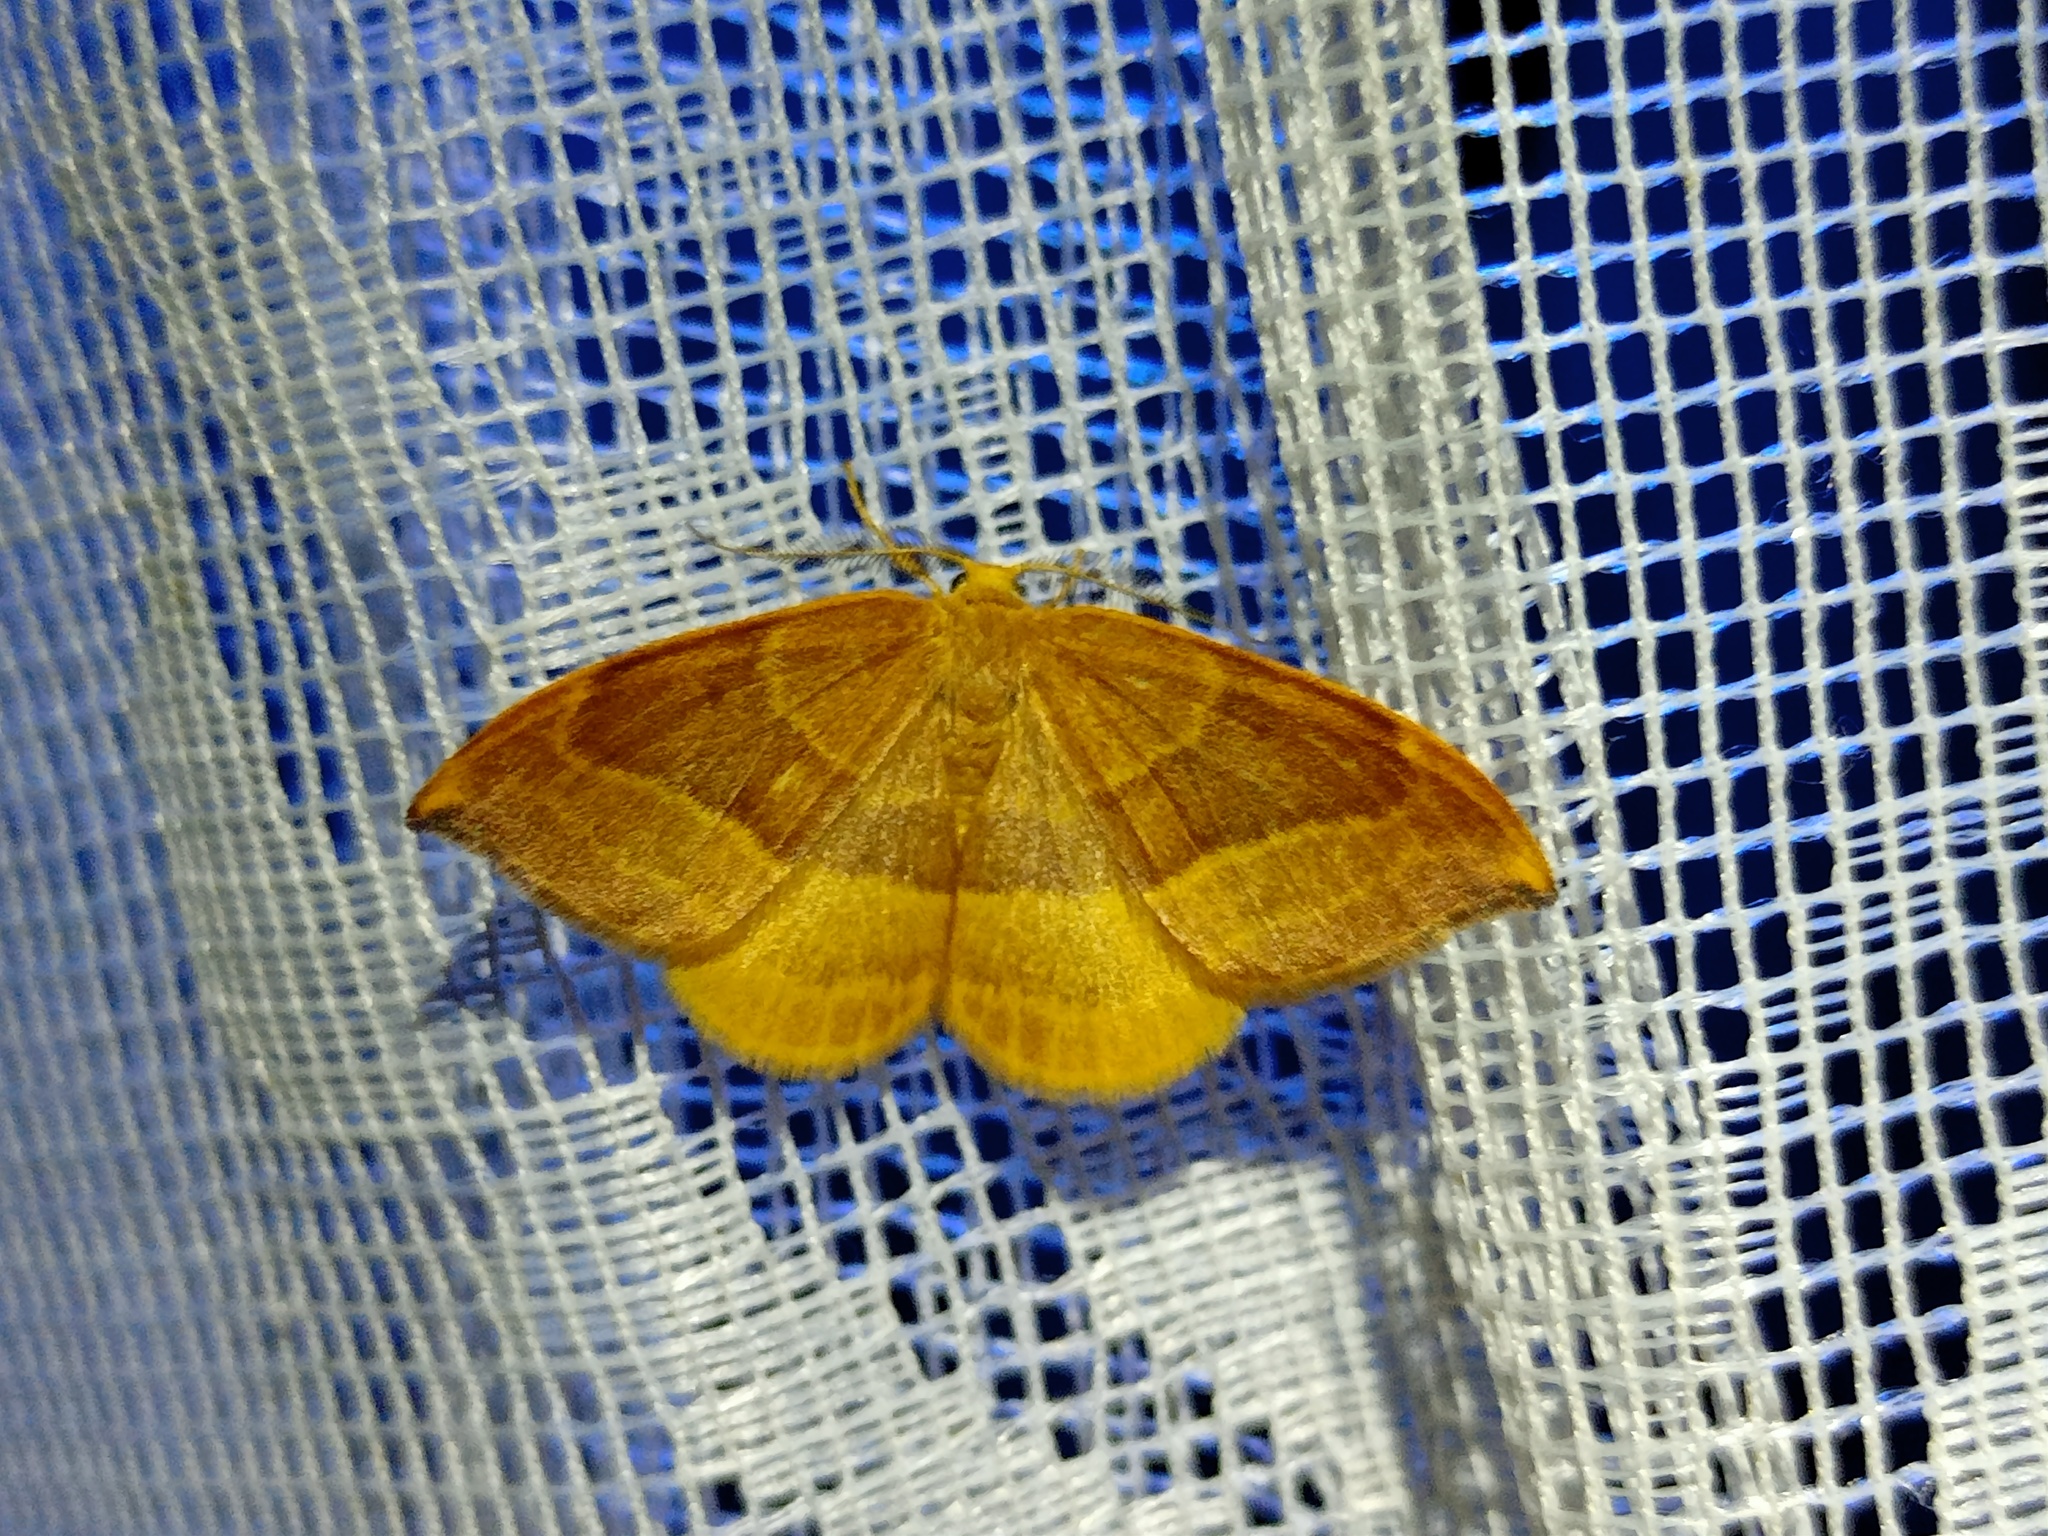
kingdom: Animalia
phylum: Arthropoda
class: Insecta
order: Lepidoptera
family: Drepanidae
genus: Watsonalla
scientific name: Watsonalla cultraria
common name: Barred hook-tip
